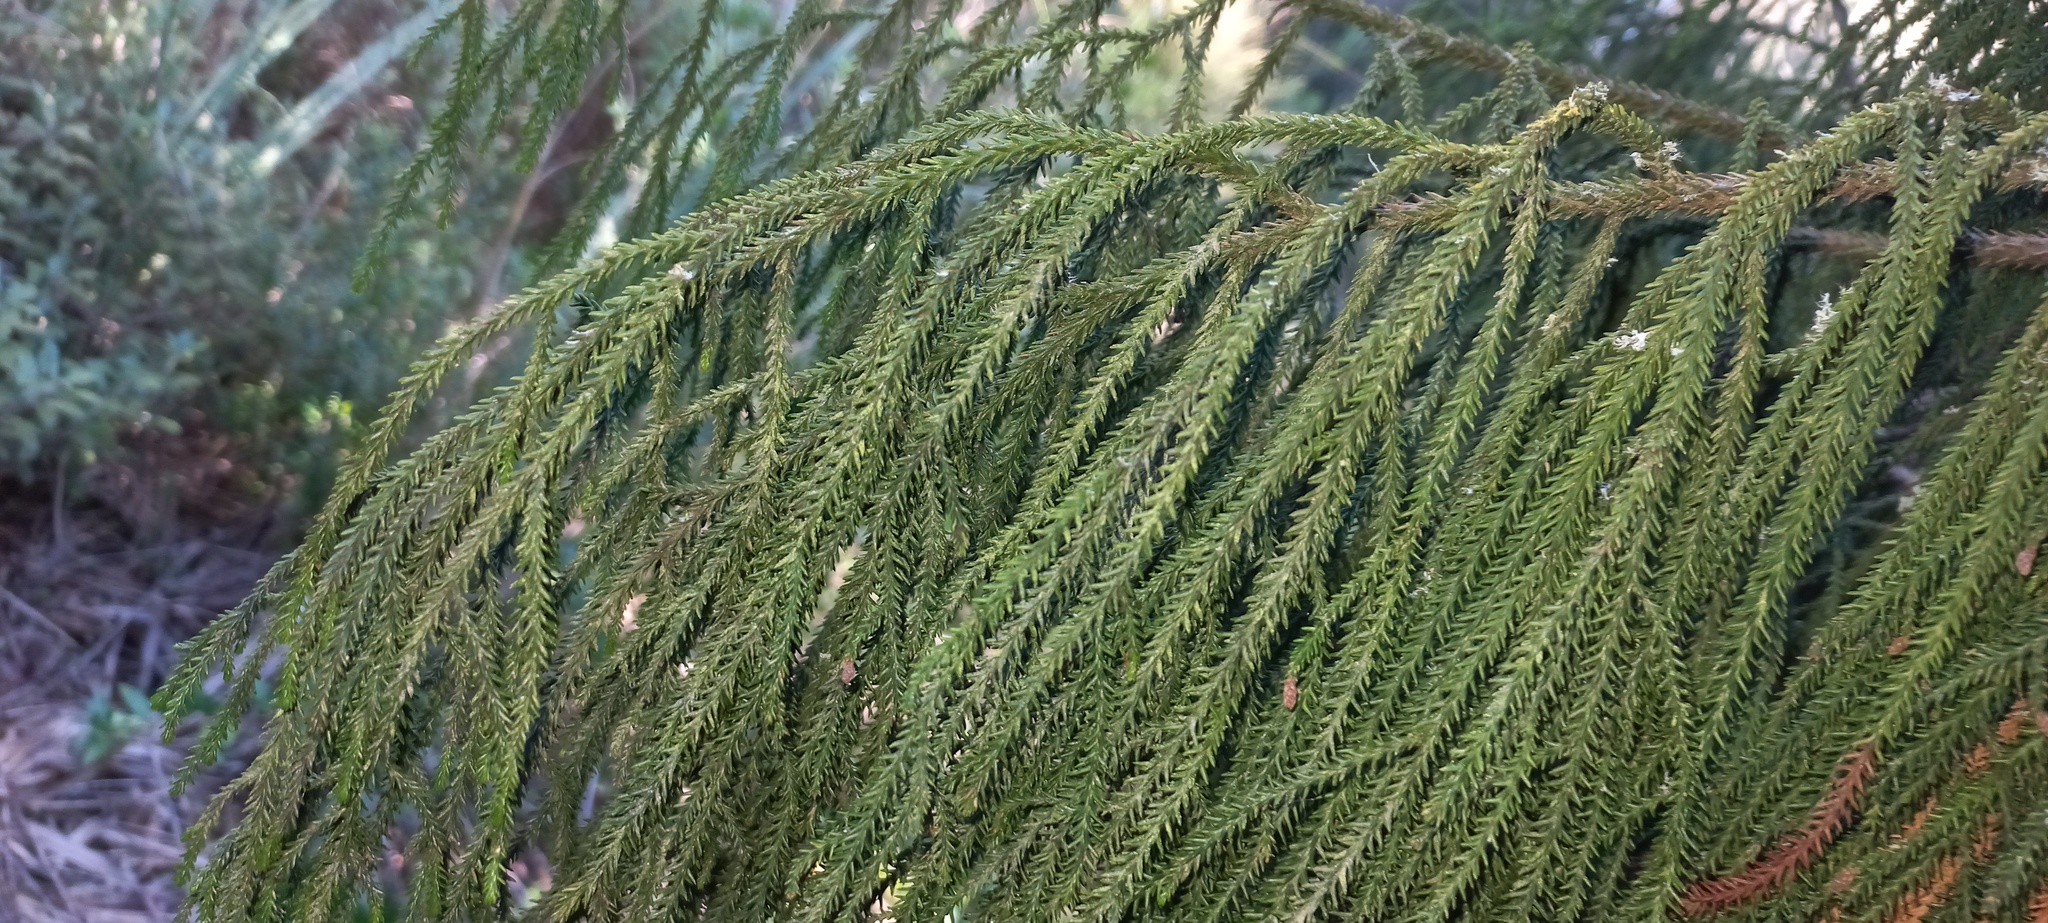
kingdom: Plantae
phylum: Tracheophyta
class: Pinopsida
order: Pinales
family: Podocarpaceae
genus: Dacrydium
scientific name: Dacrydium cupressinum
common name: Red pine
